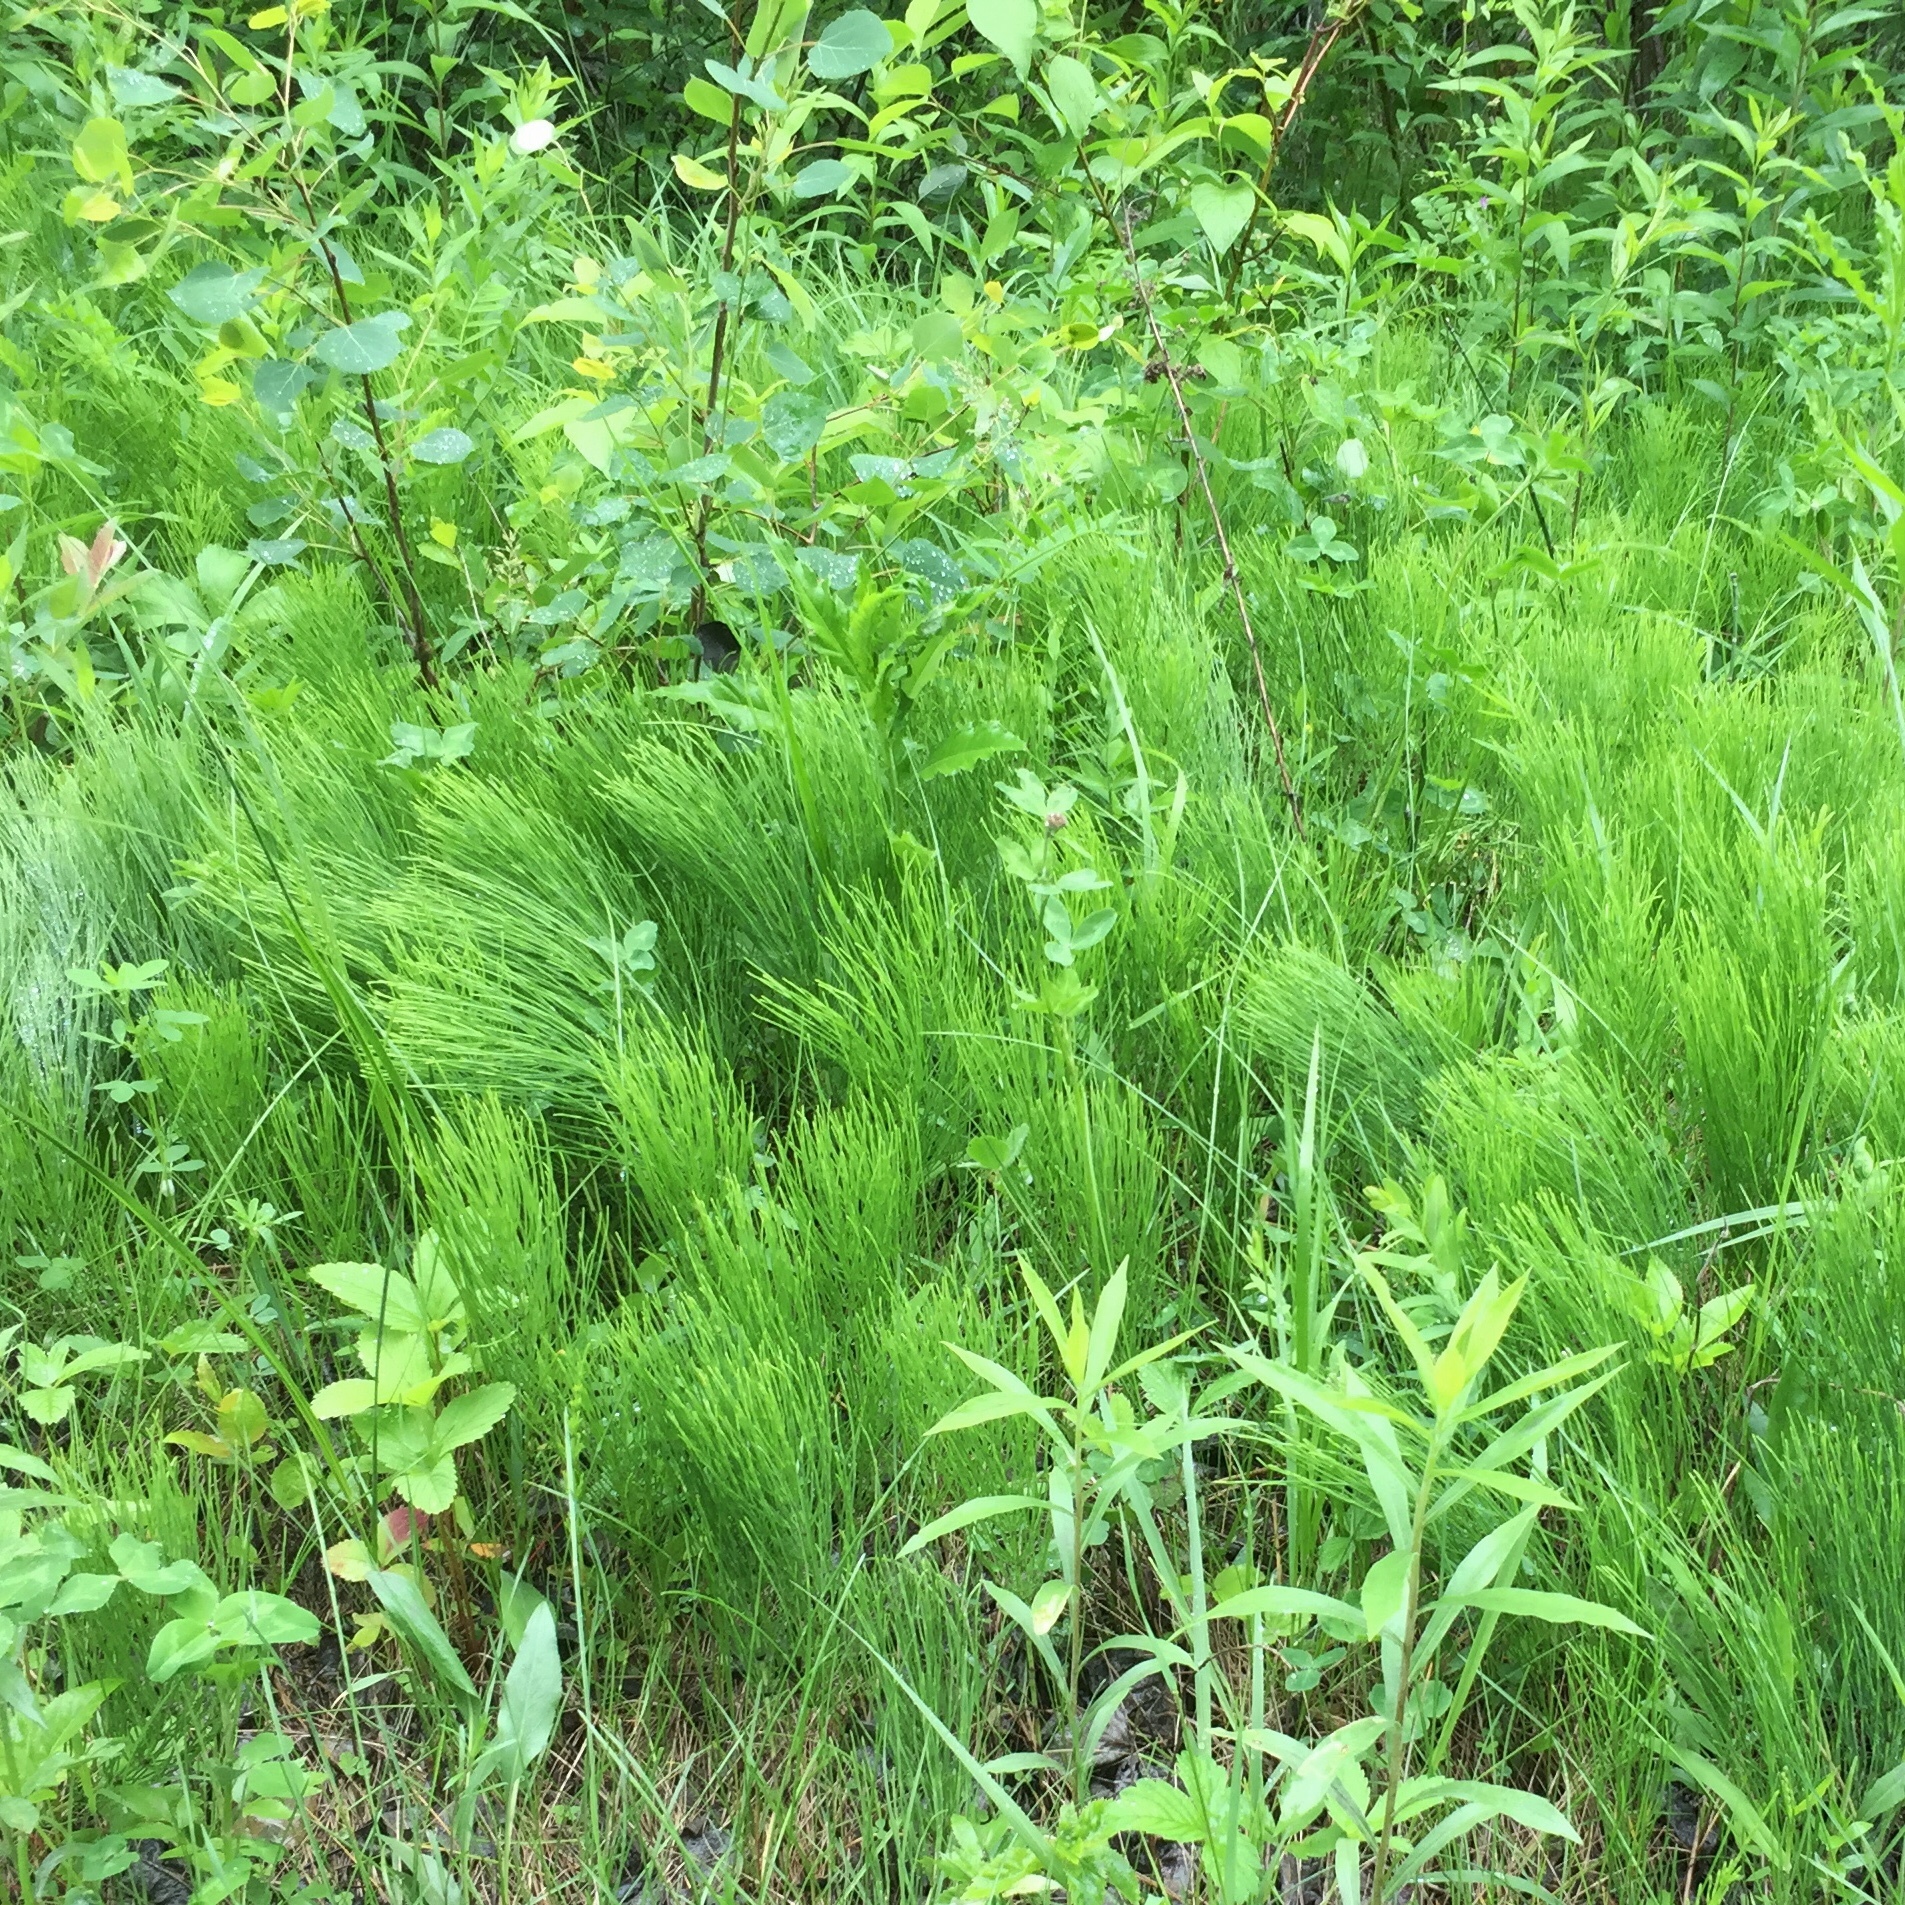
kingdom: Plantae
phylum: Tracheophyta
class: Polypodiopsida
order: Equisetales
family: Equisetaceae
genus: Equisetum
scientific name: Equisetum arvense
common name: Field horsetail
